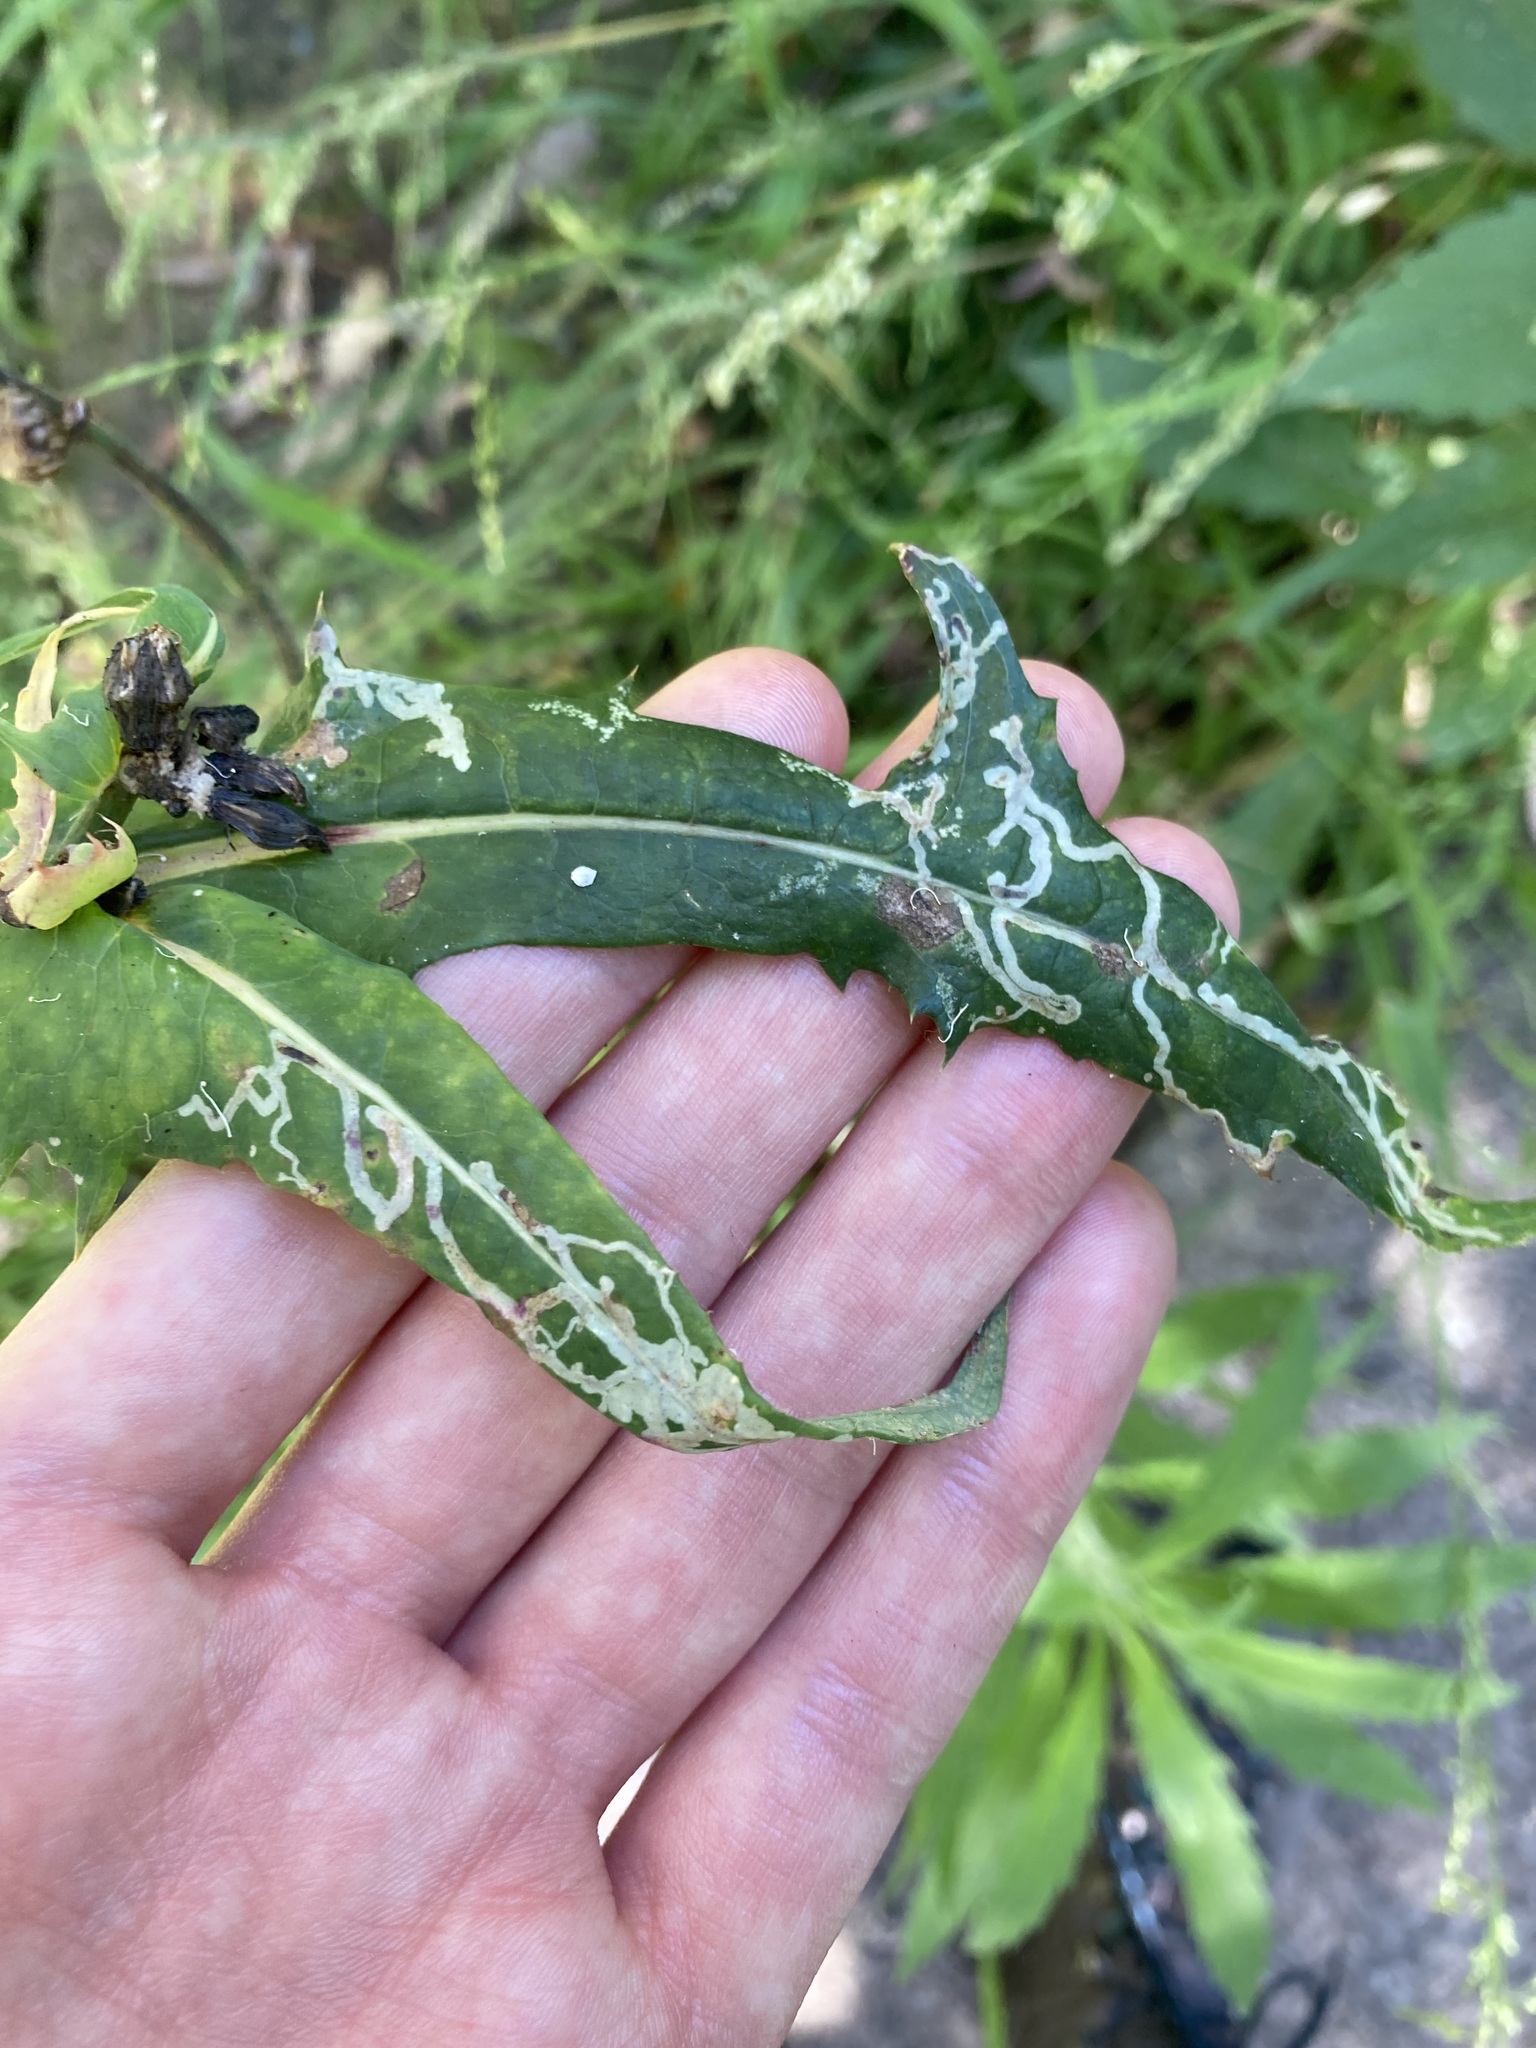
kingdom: Animalia
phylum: Arthropoda
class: Insecta
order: Diptera
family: Agromyzidae
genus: Phytomyza
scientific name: Phytomyza syngenesiae
